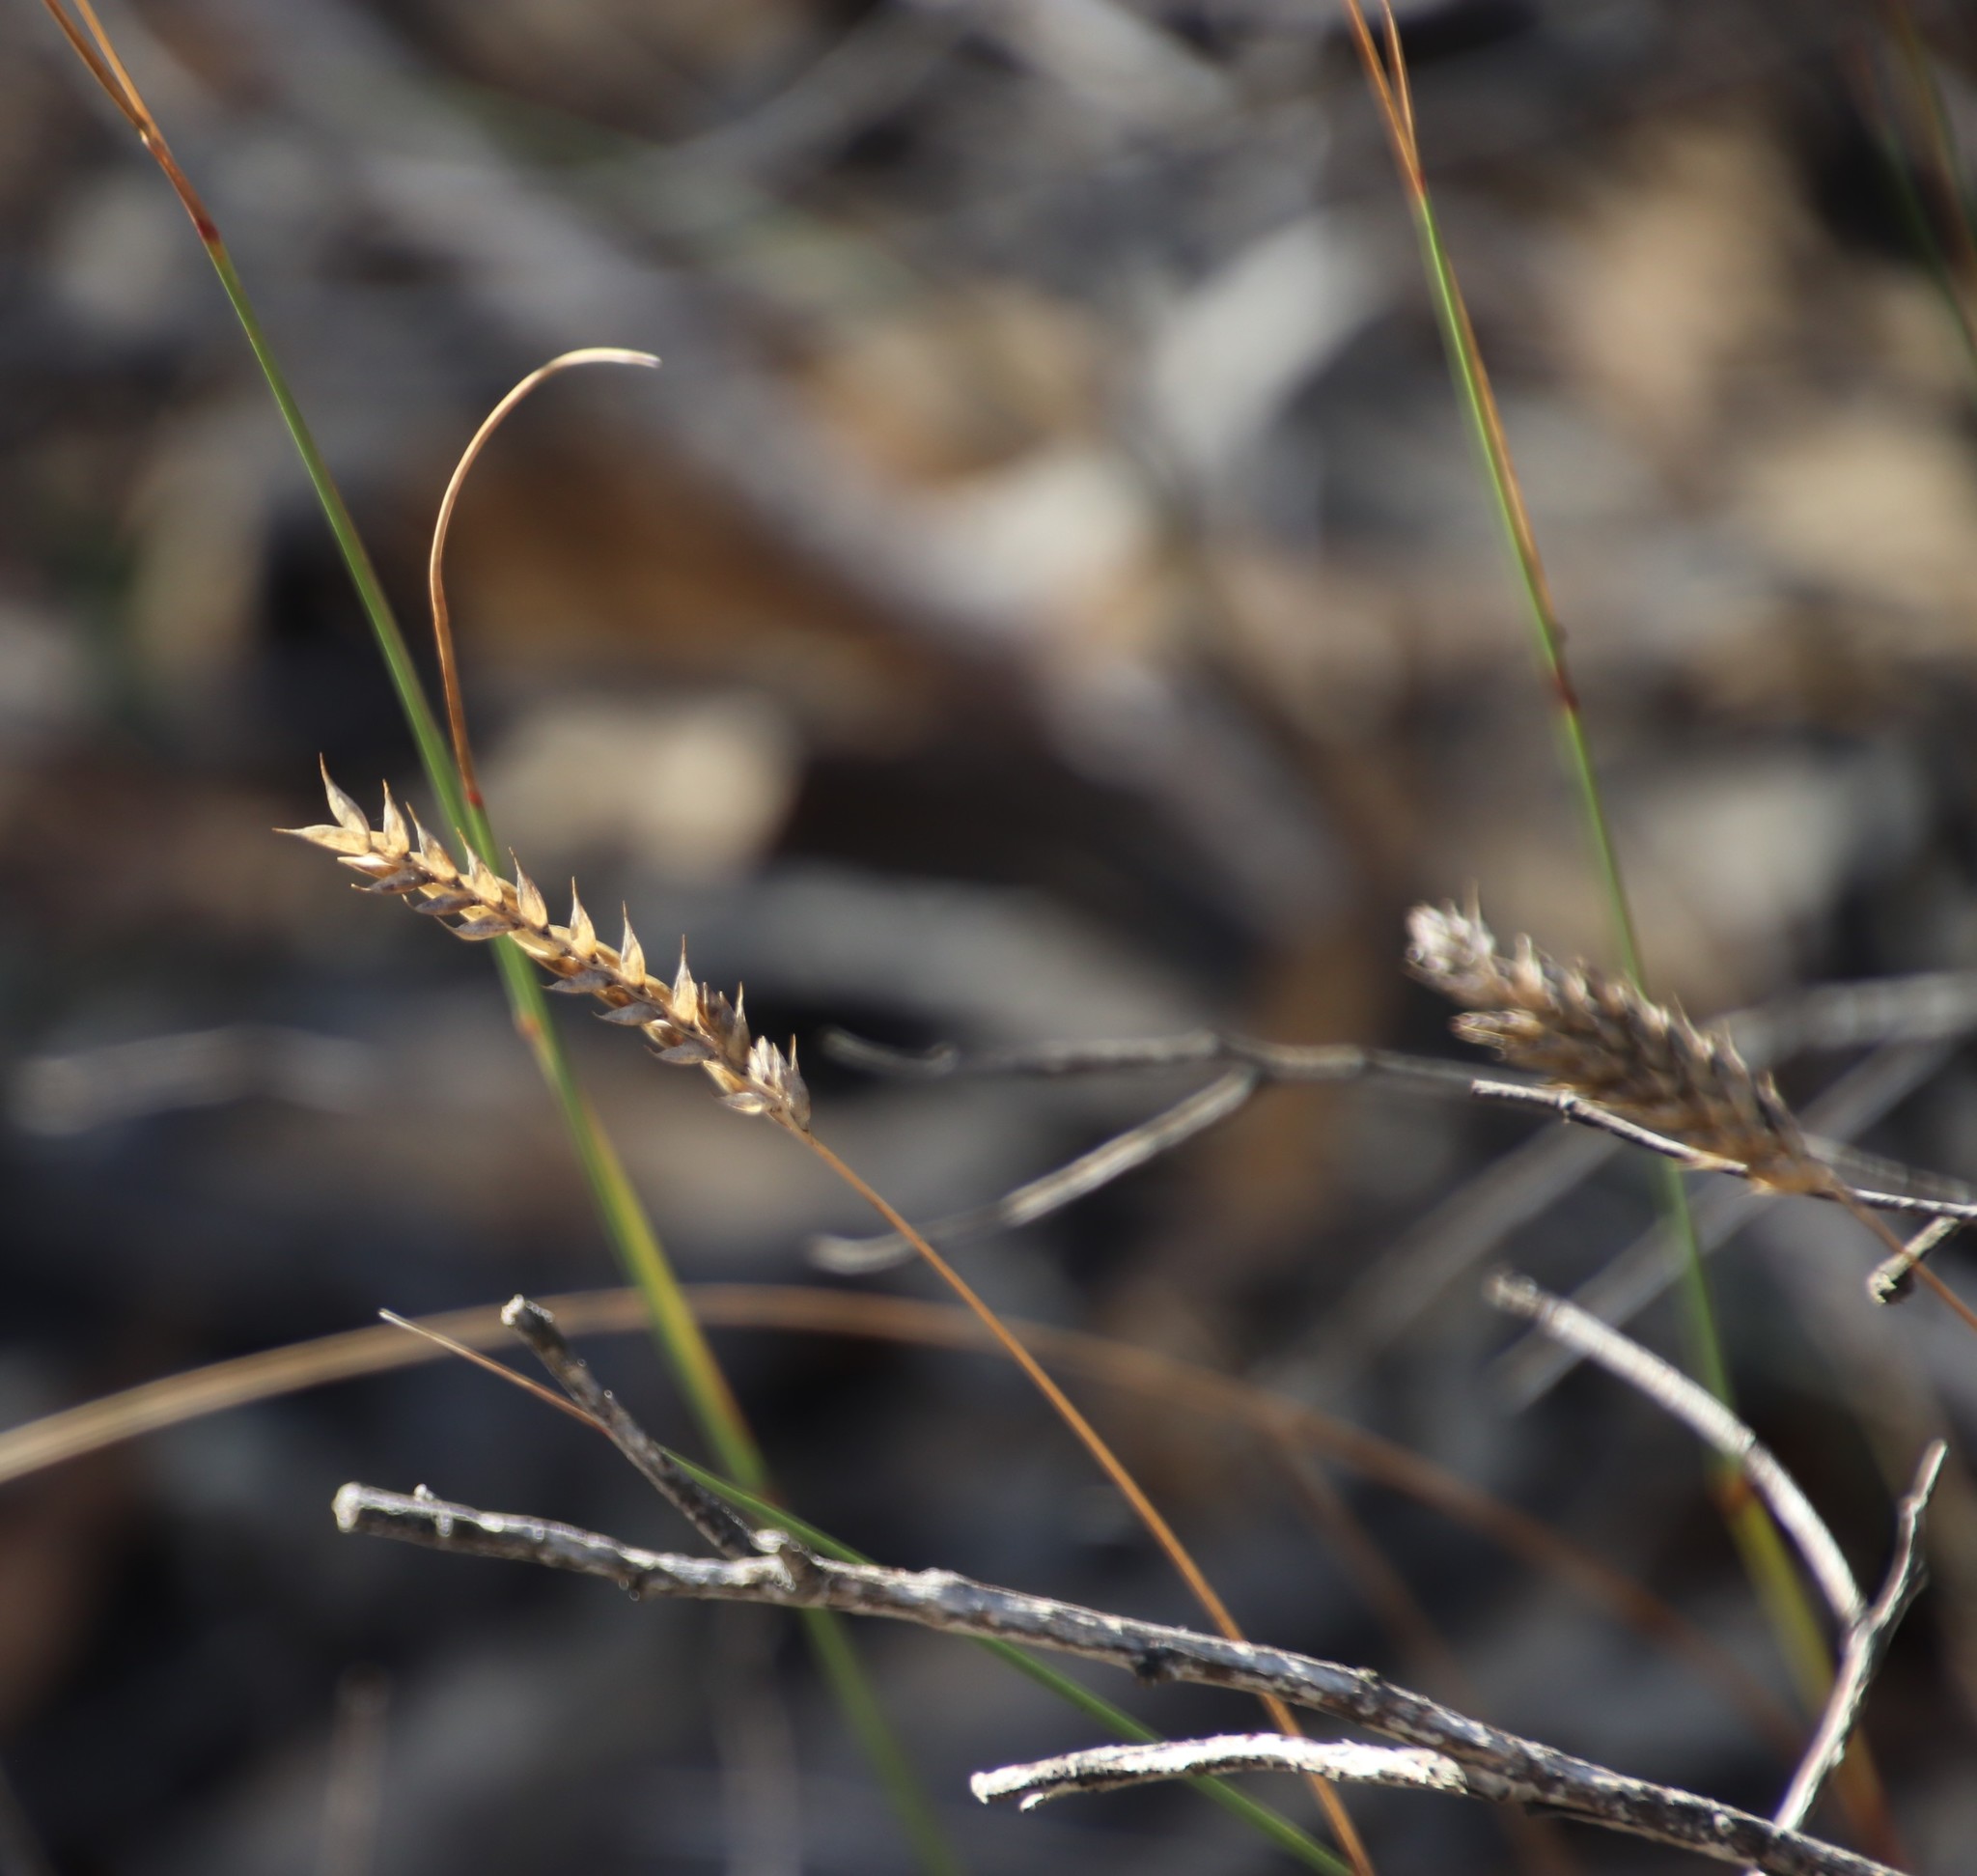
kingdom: Plantae
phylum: Tracheophyta
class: Liliopsida
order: Poales
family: Poaceae
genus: Tribolium
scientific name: Tribolium uniolae
